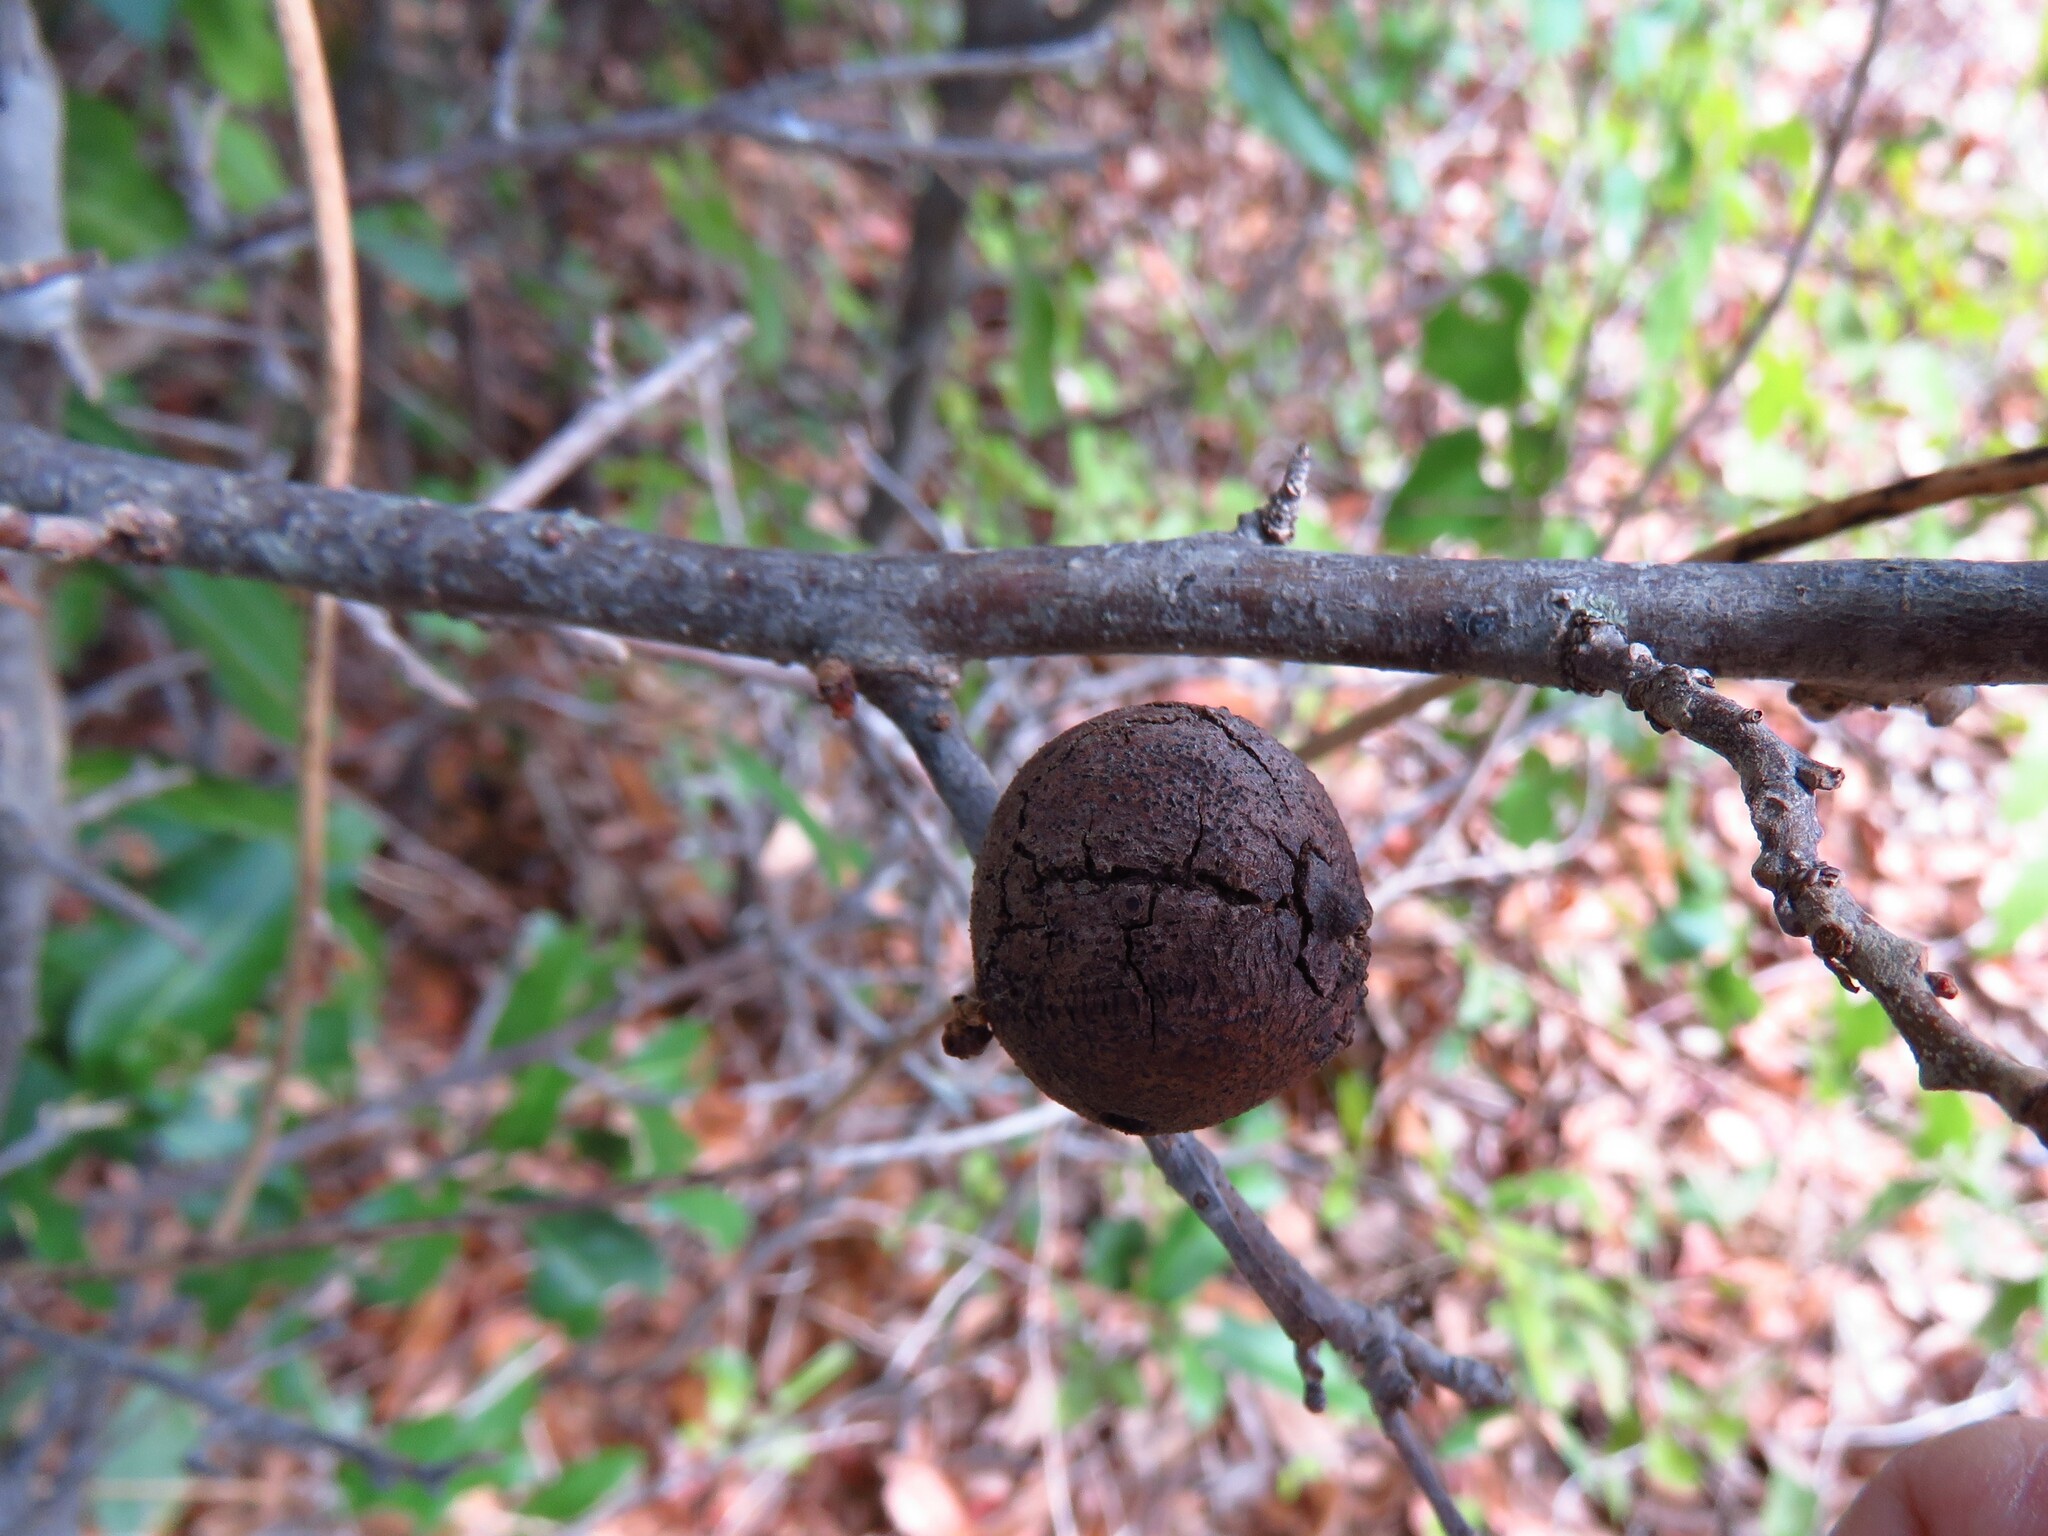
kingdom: Animalia
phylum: Arthropoda
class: Insecta
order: Hymenoptera
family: Cynipidae
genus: Disholcaspis
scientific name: Disholcaspis
